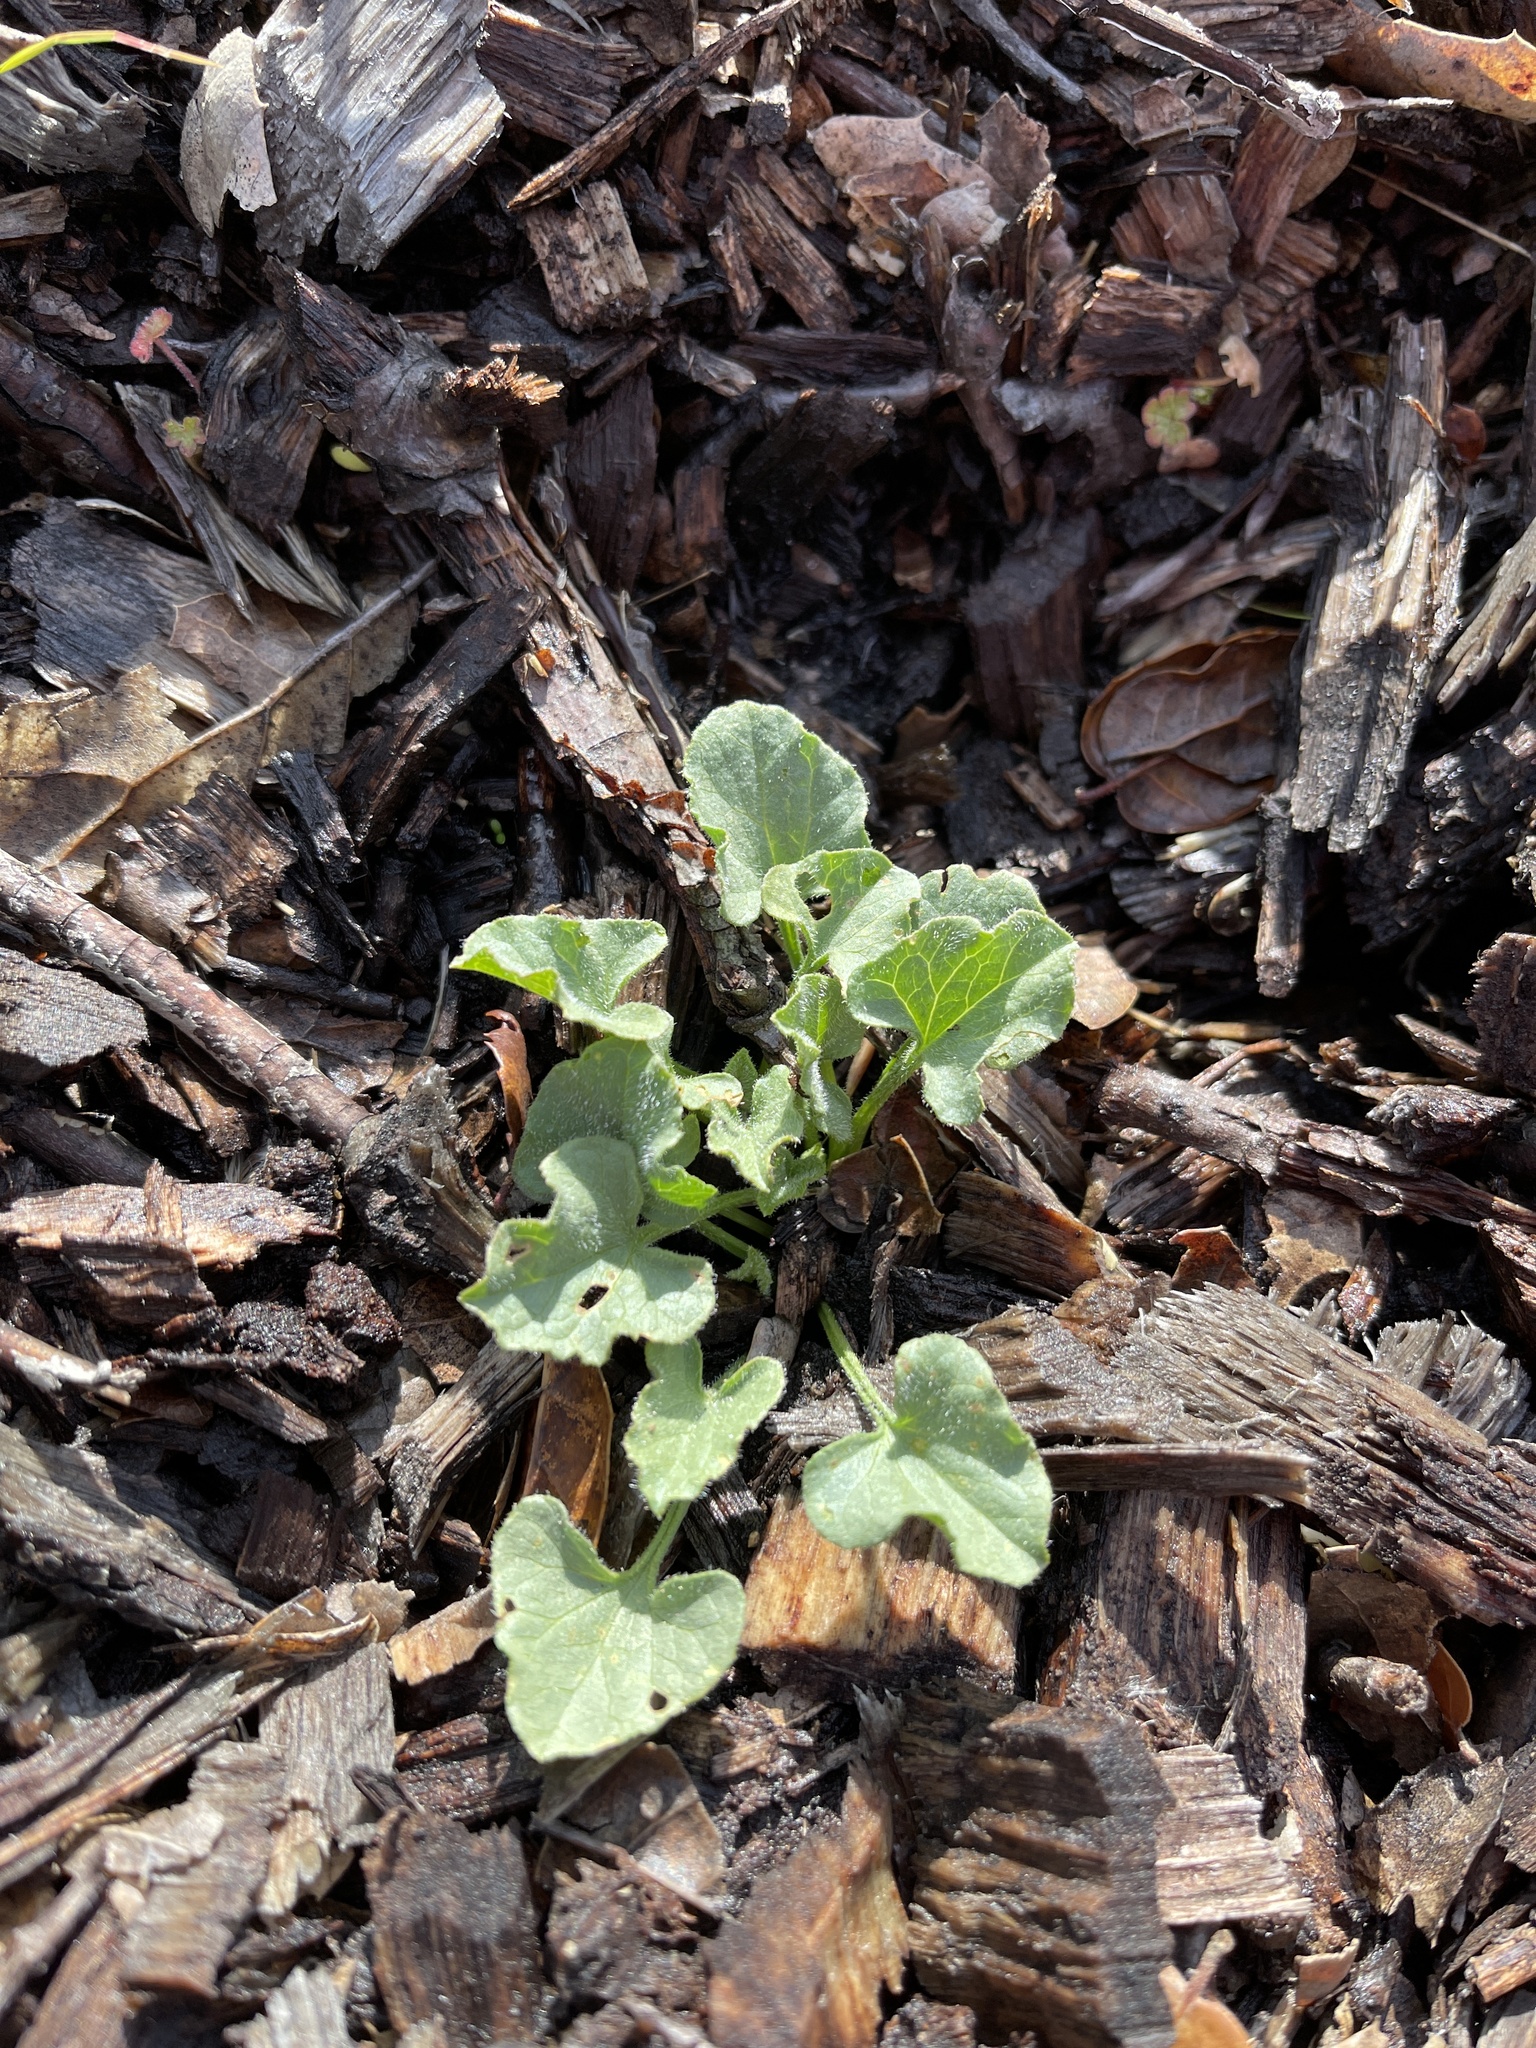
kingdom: Plantae
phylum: Tracheophyta
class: Magnoliopsida
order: Solanales
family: Convolvulaceae
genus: Calystegia
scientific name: Calystegia subacaulis
